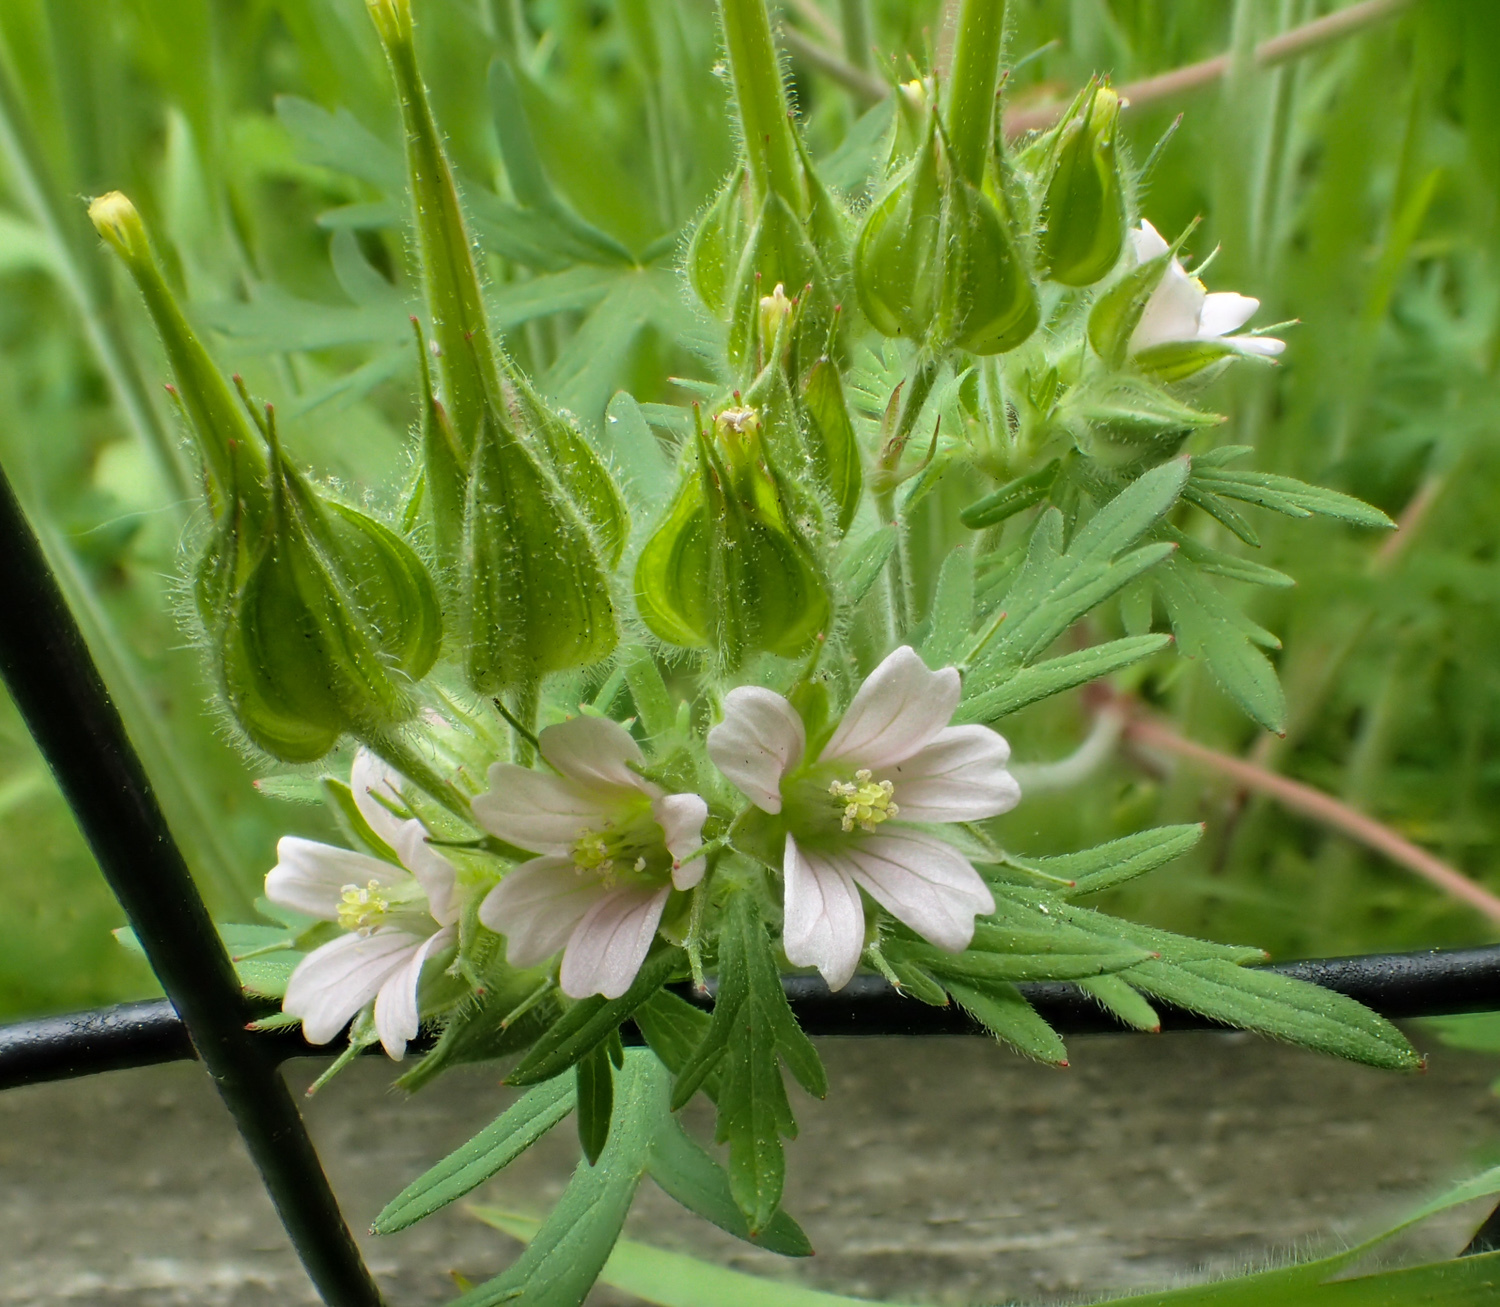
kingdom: Plantae
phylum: Tracheophyta
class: Magnoliopsida
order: Geraniales
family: Geraniaceae
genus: Geranium
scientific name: Geranium carolinianum
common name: Carolina crane's-bill
